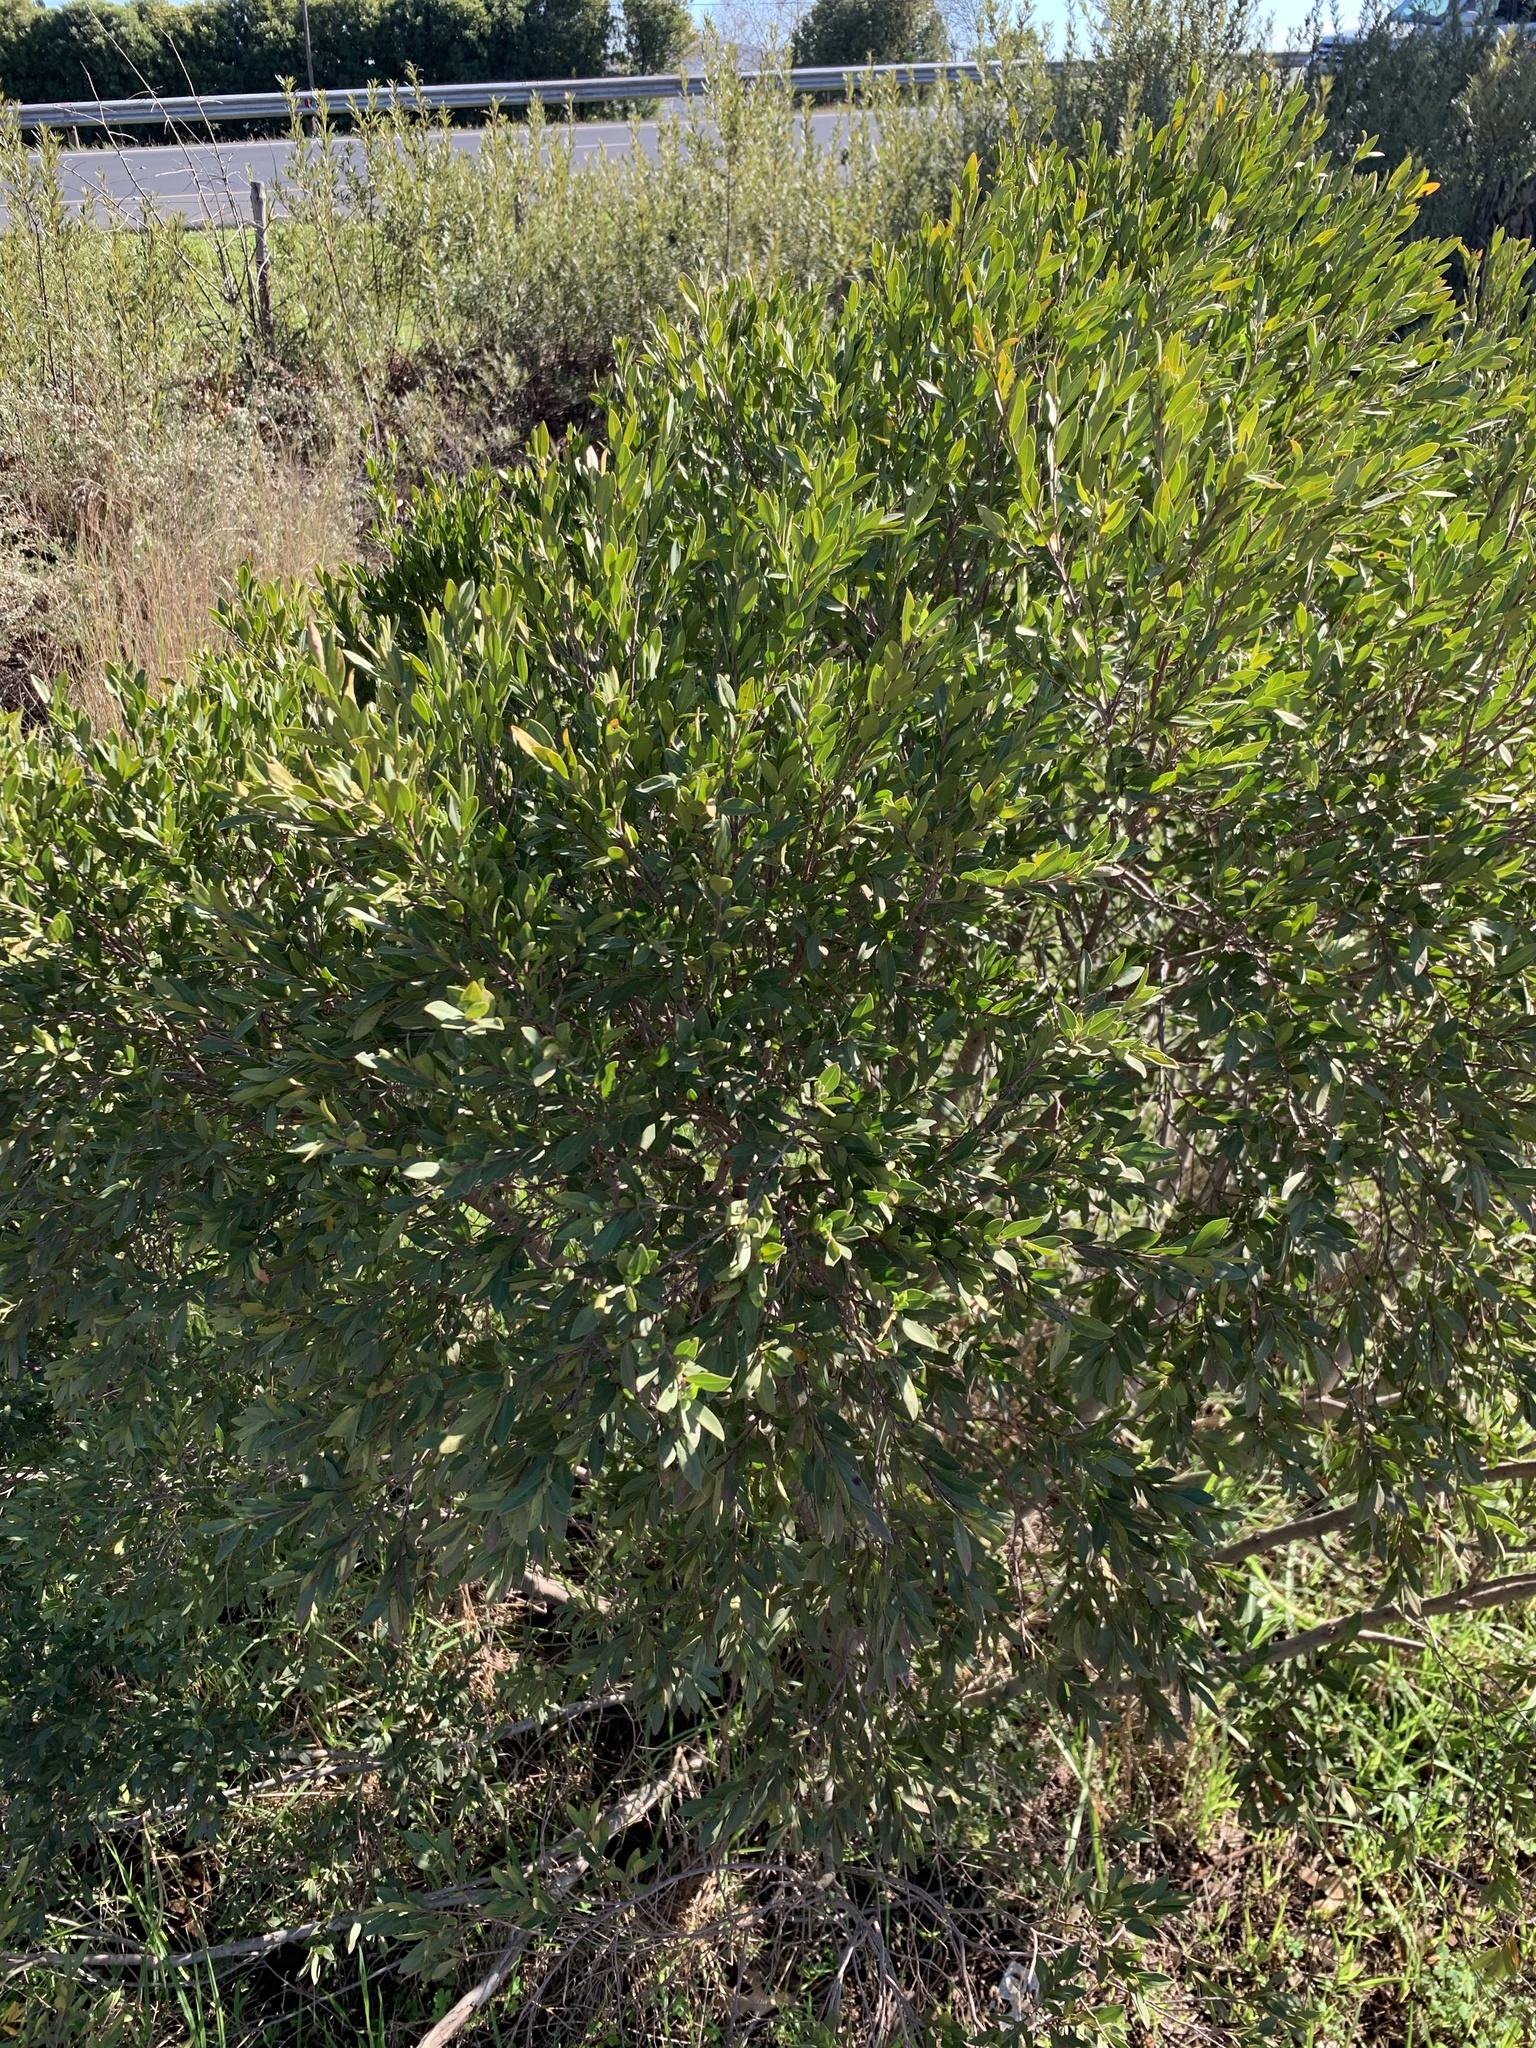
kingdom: Plantae
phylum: Tracheophyta
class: Magnoliopsida
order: Ericales
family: Ebenaceae
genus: Diospyros
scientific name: Diospyros glabra
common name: Fynbos star apple
